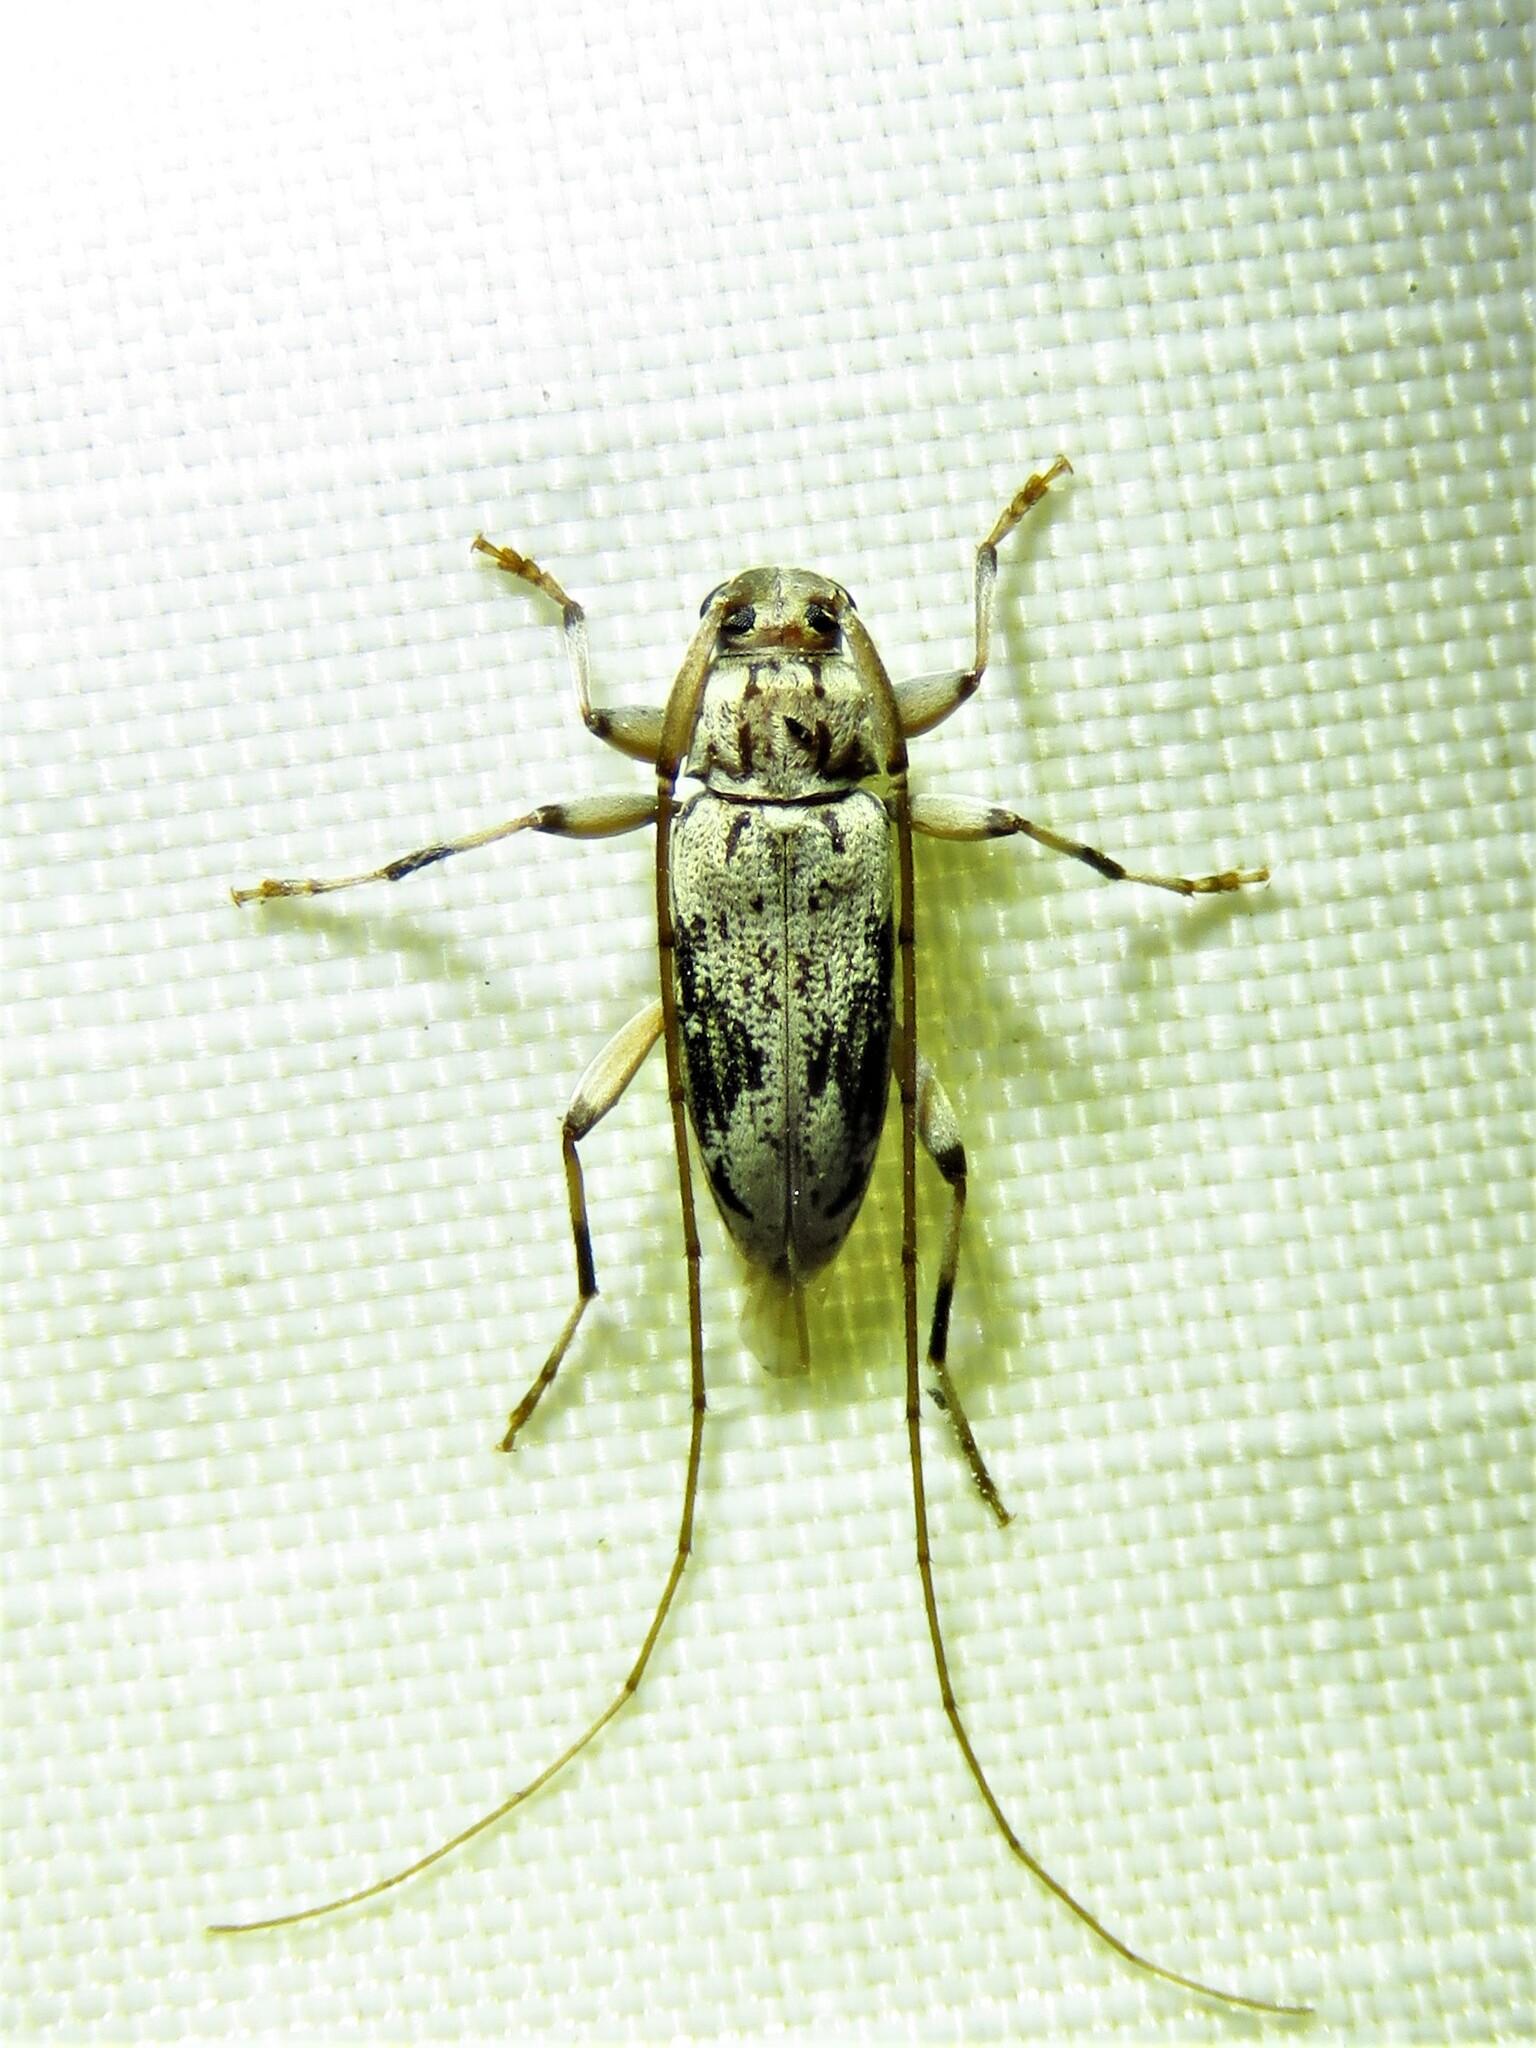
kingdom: Animalia
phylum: Arthropoda
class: Insecta
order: Coleoptera
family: Cerambycidae
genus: Lepturges
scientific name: Lepturges angulatus
